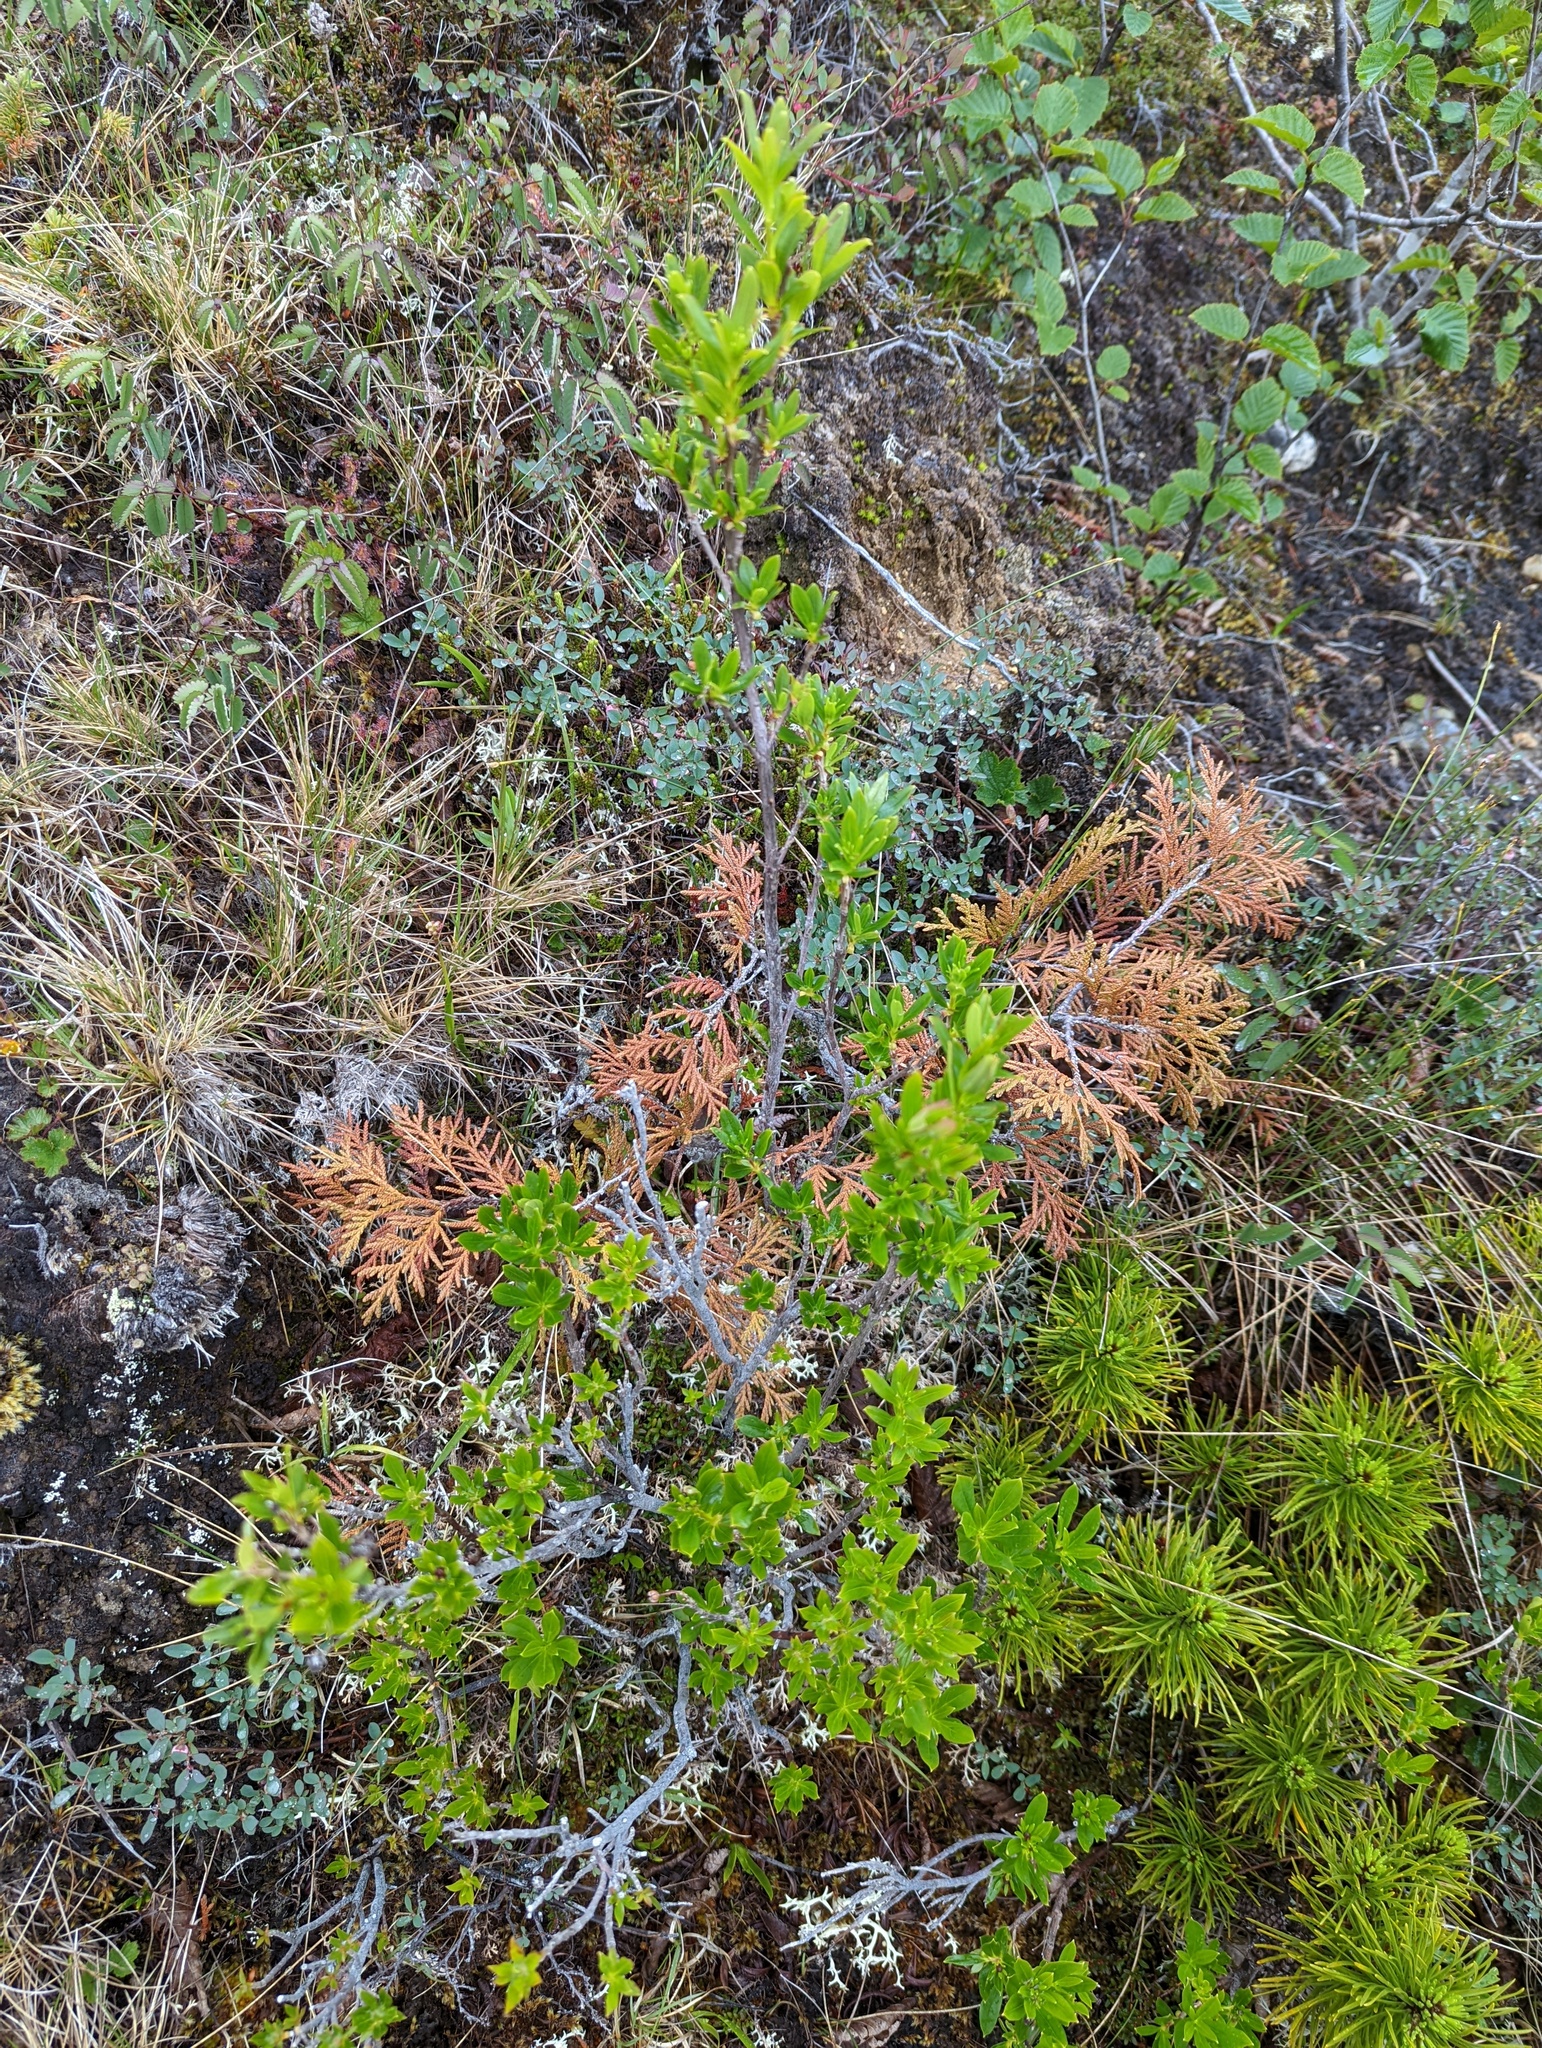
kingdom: Plantae
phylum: Tracheophyta
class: Magnoliopsida
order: Ericales
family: Ericaceae
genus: Elliottia
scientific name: Elliottia pyroliflora
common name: Copperbush
